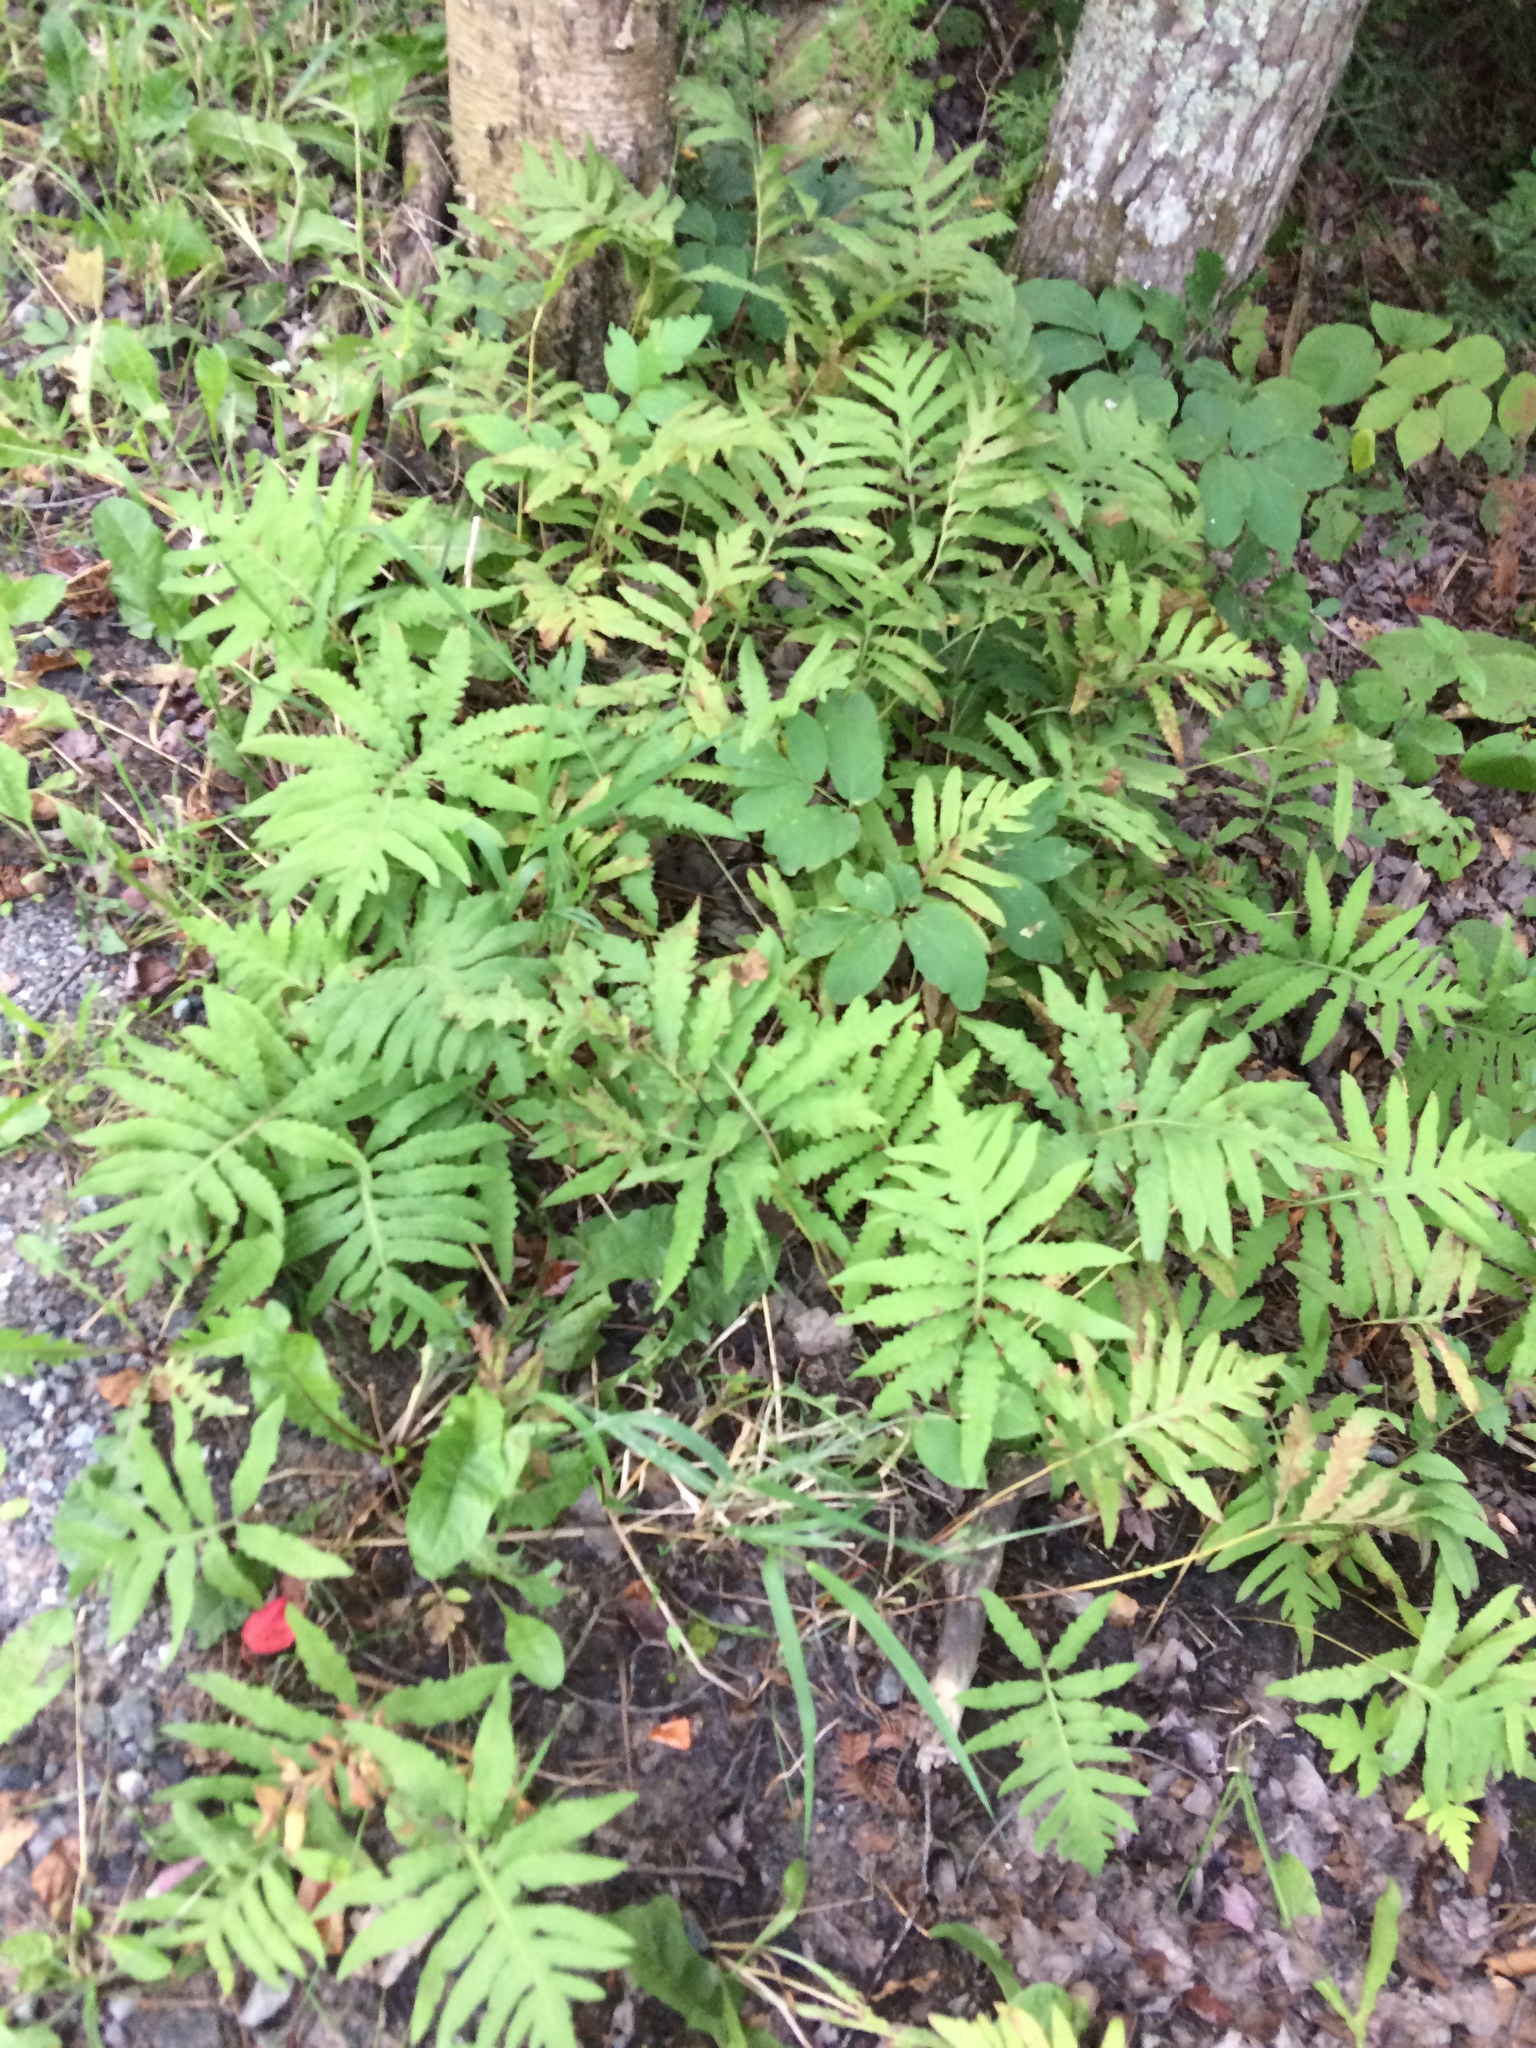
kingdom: Plantae
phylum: Tracheophyta
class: Polypodiopsida
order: Polypodiales
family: Onocleaceae
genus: Onoclea
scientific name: Onoclea sensibilis
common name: Sensitive fern
